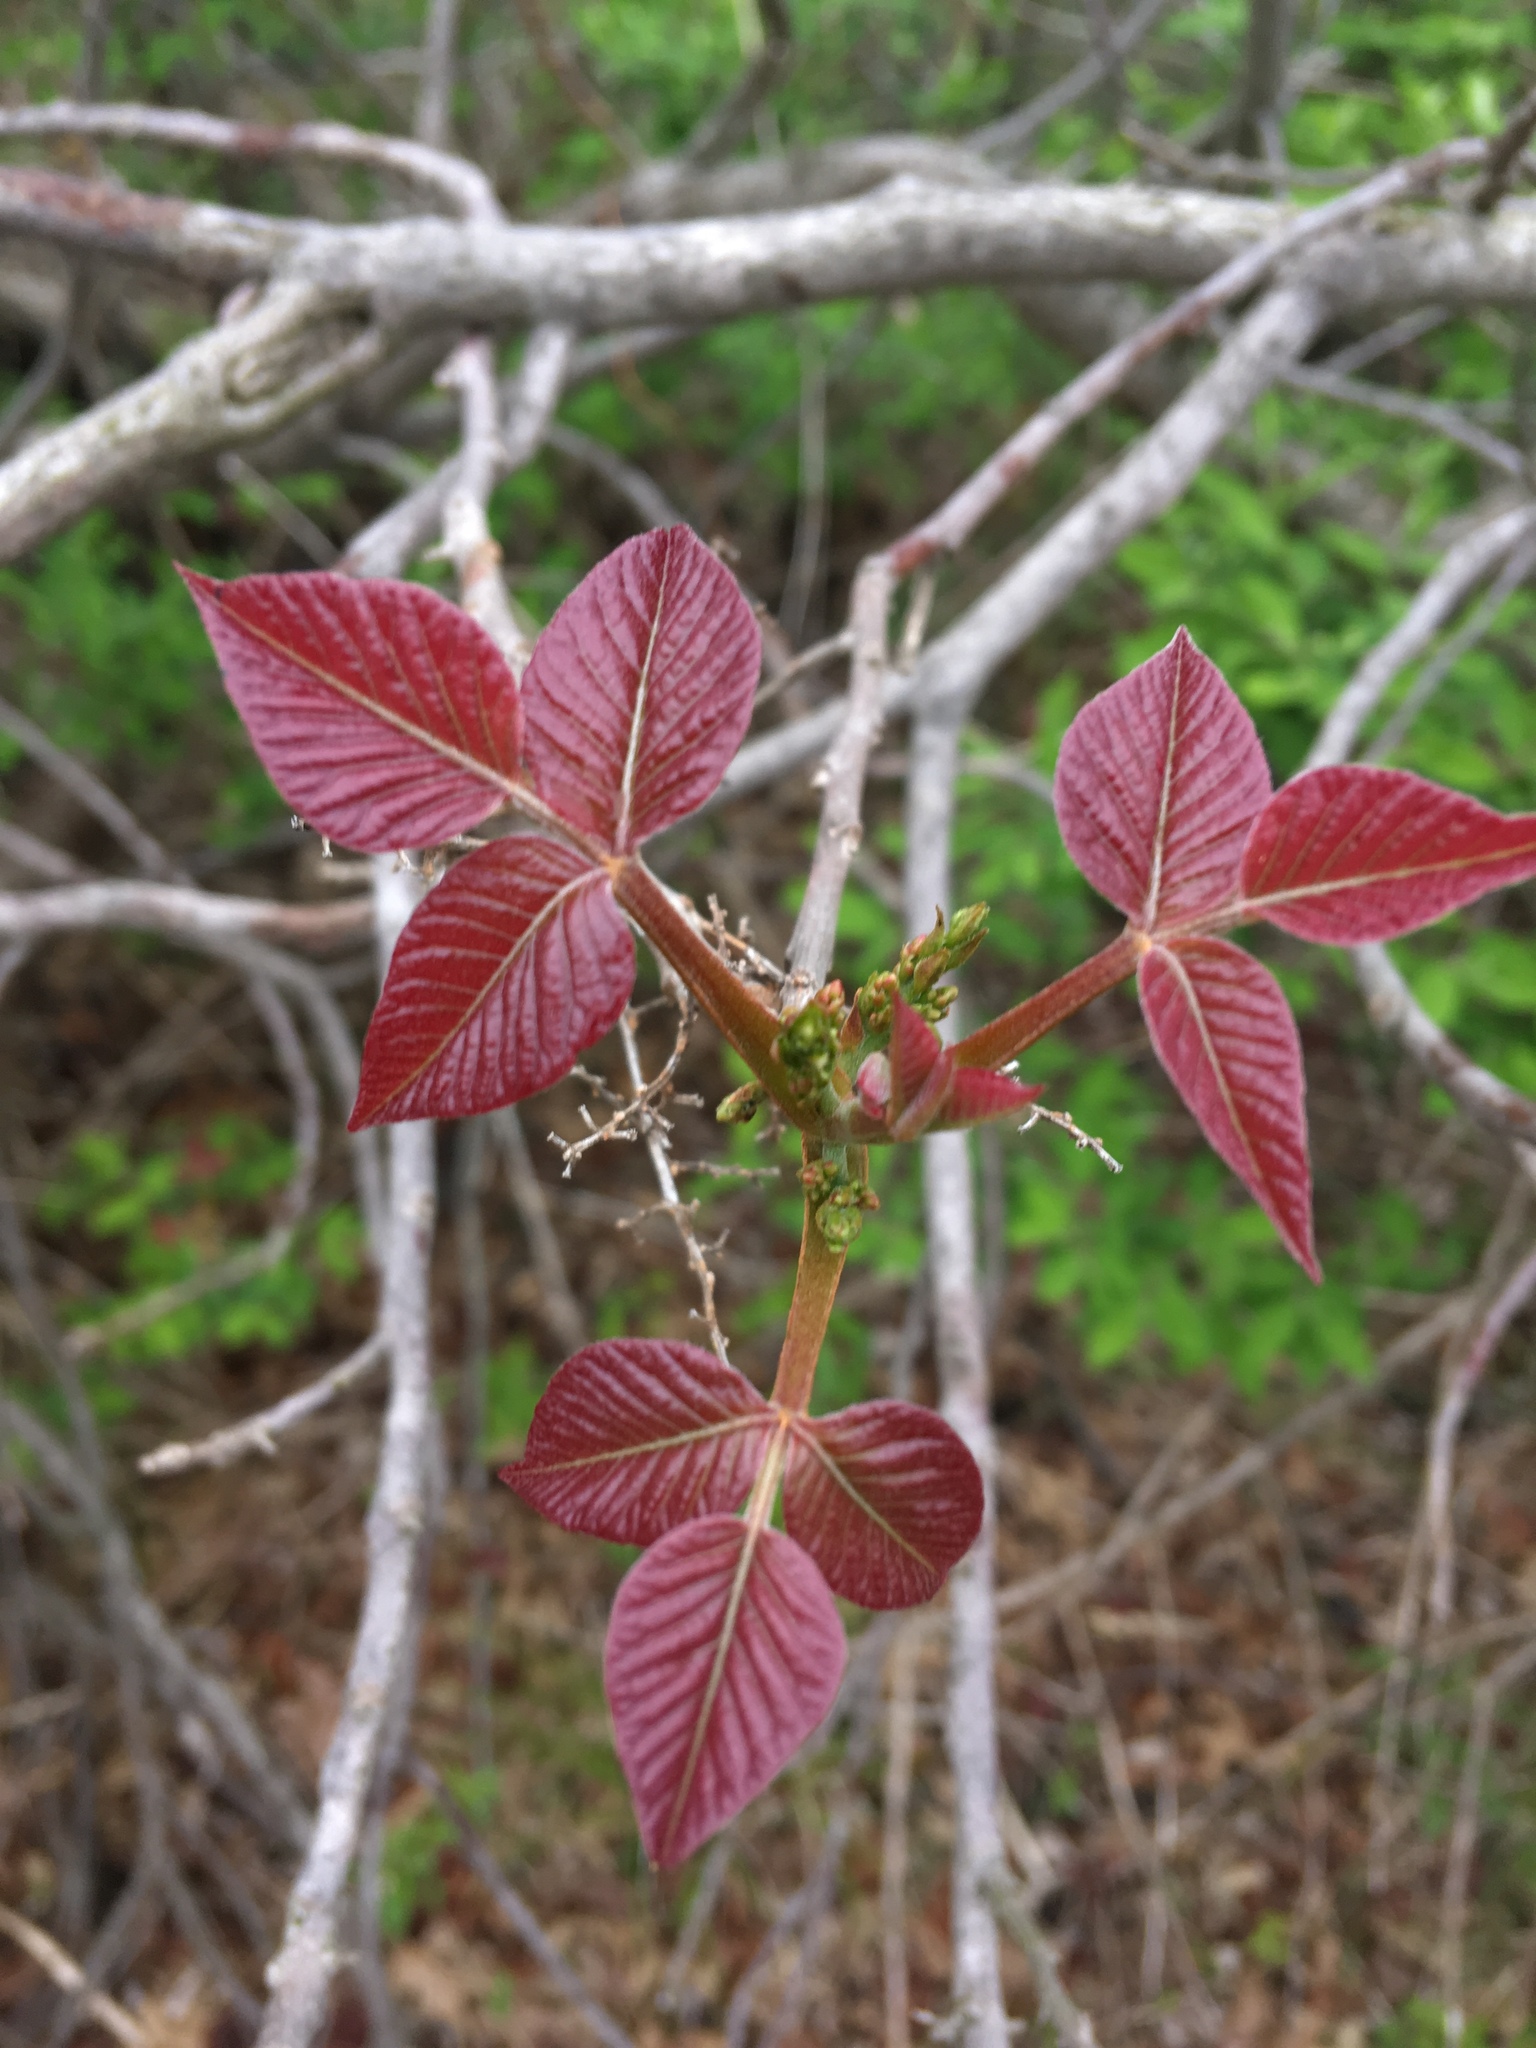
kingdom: Plantae
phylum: Tracheophyta
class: Magnoliopsida
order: Sapindales
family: Anacardiaceae
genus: Toxicodendron
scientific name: Toxicodendron radicans
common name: Poison ivy
